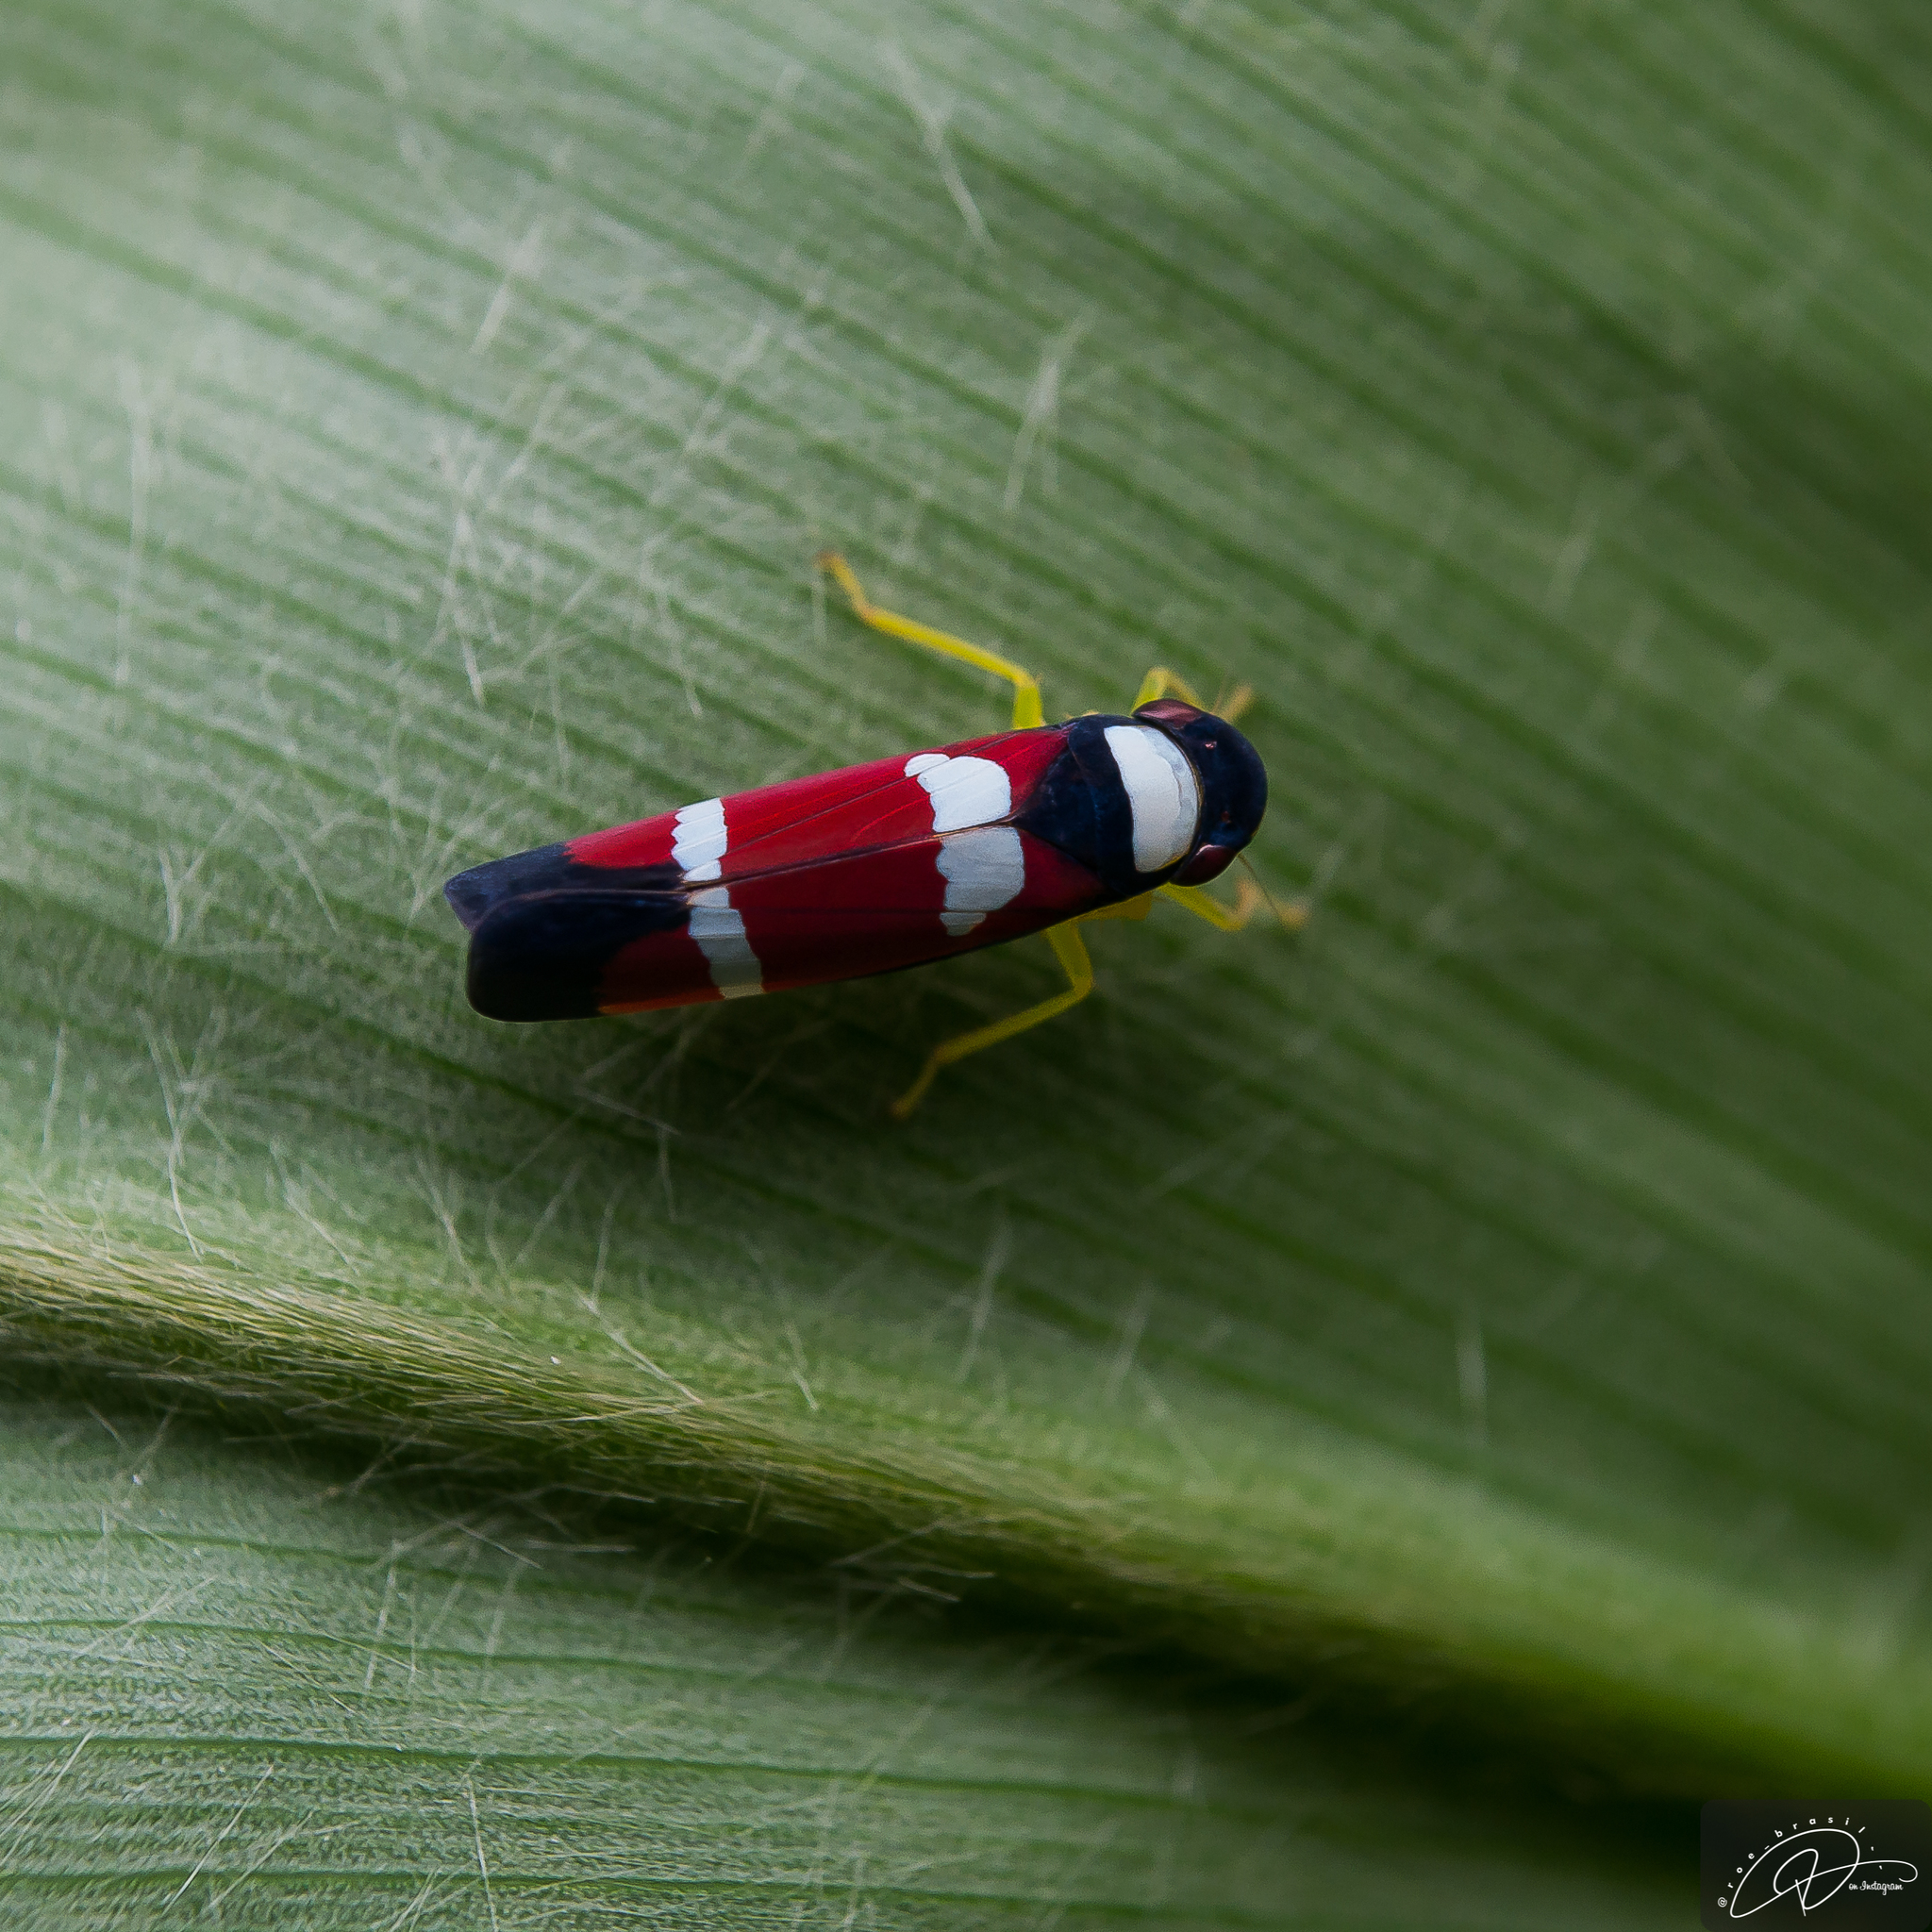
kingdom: Animalia
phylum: Arthropoda
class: Insecta
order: Hemiptera
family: Cicadellidae
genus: Erythrogonia
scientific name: Erythrogonia phoenicea
